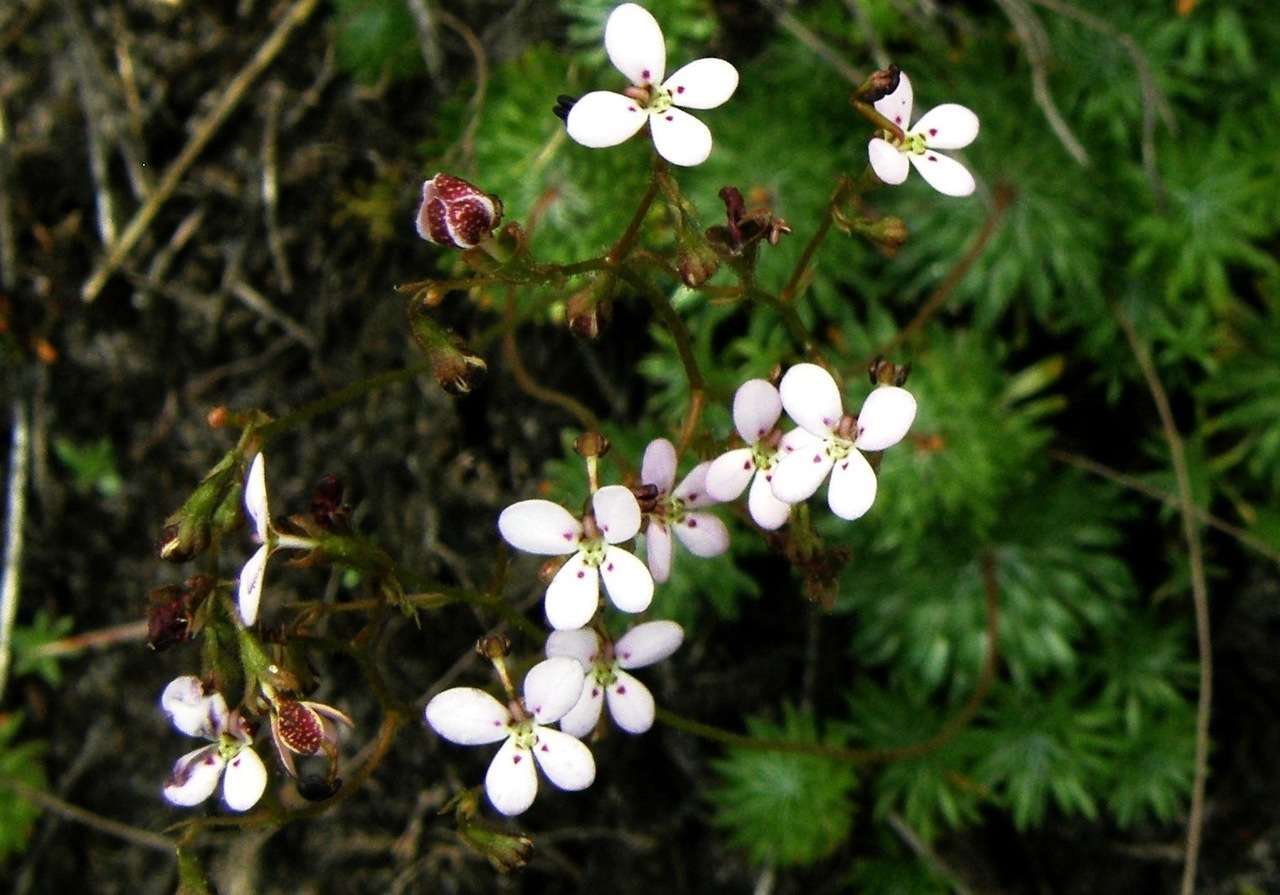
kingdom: Plantae
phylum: Tracheophyta
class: Magnoliopsida
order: Asterales
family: Stylidiaceae
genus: Stylidium
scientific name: Stylidium soboliferum
